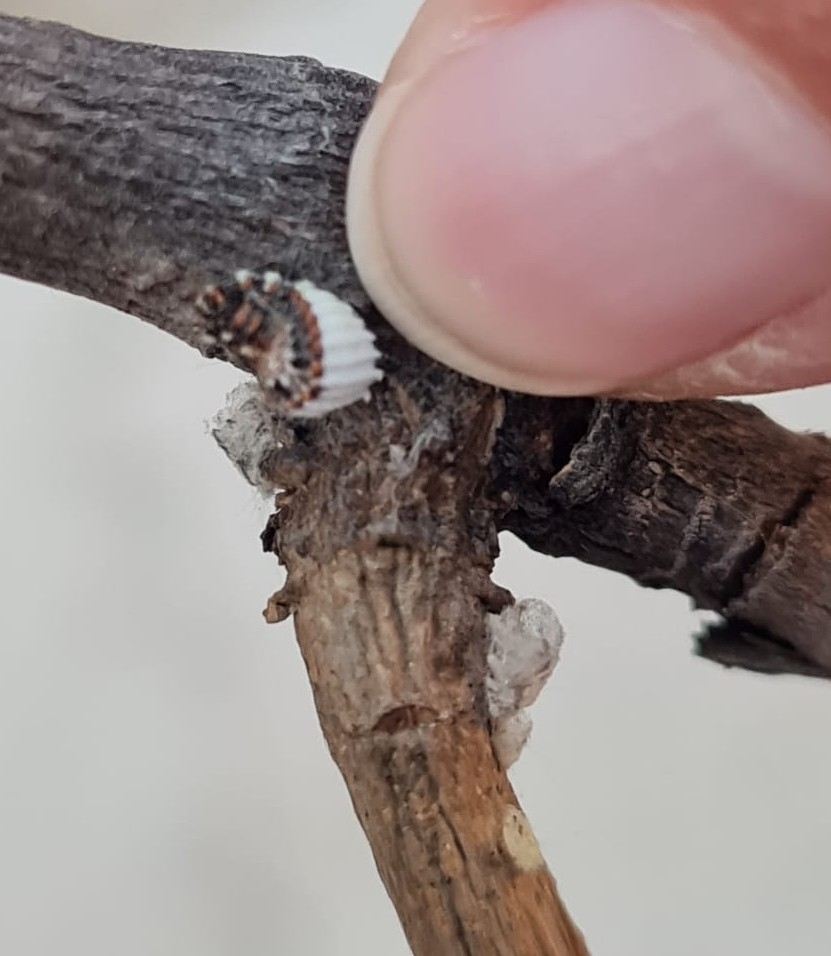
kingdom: Animalia
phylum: Arthropoda
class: Insecta
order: Hemiptera
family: Margarodidae
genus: Icerya
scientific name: Icerya purchasi
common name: Cottony cushion scale
